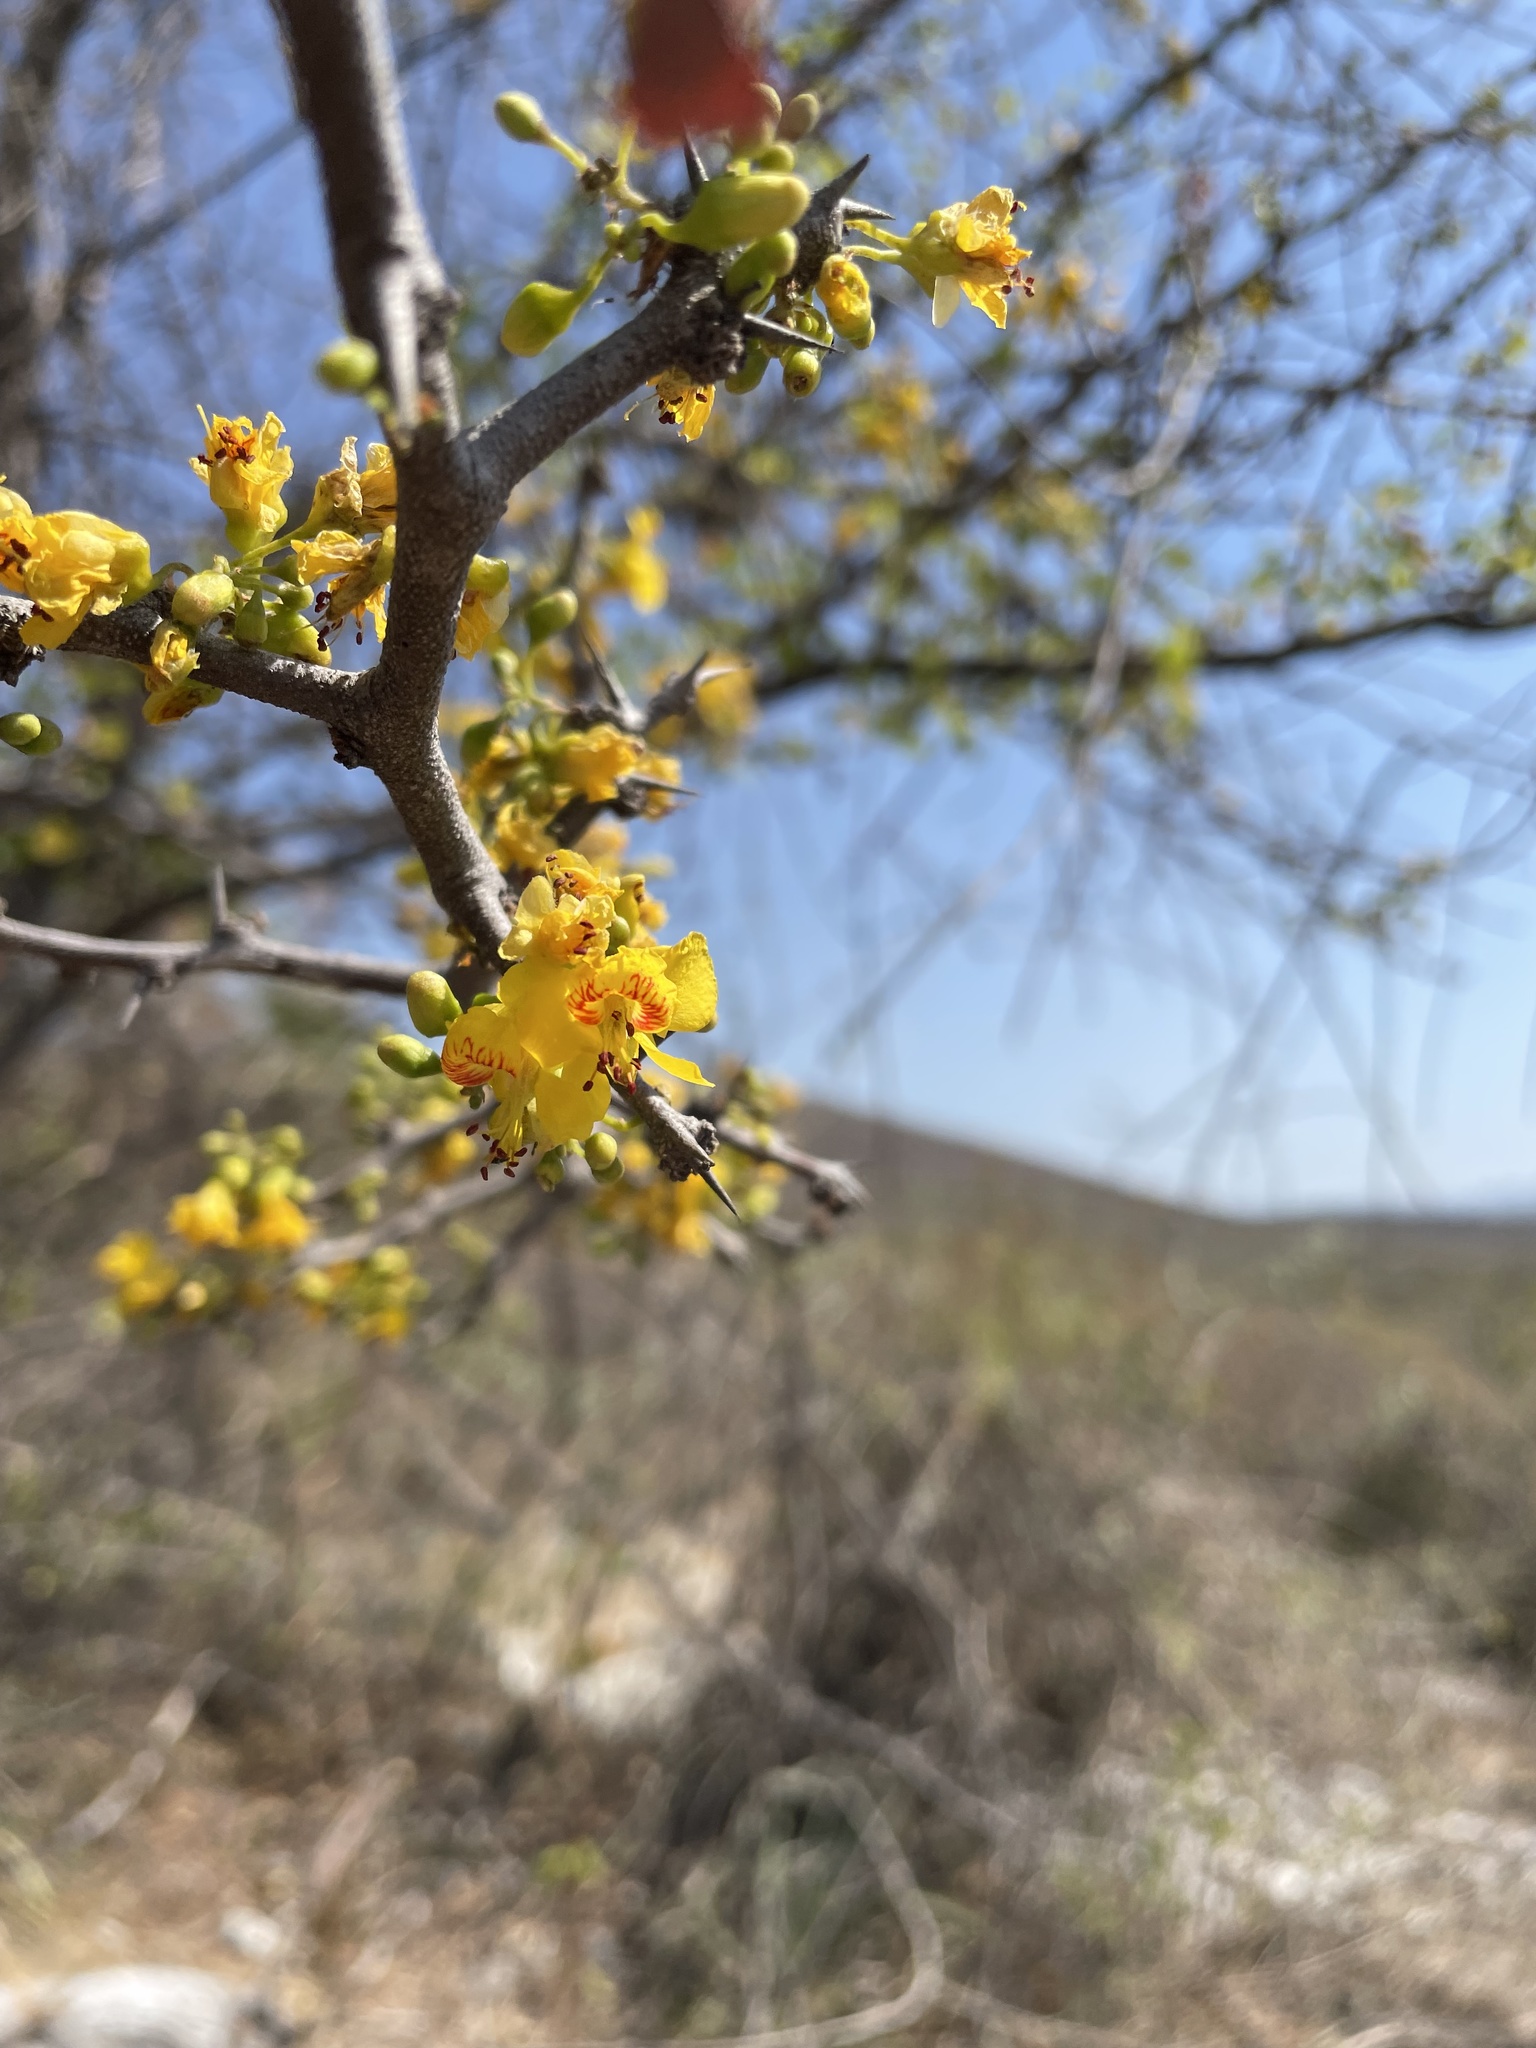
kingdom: Plantae
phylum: Tracheophyta
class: Magnoliopsida
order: Fabales
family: Fabaceae
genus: Haematoxylum
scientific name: Haematoxylum brasiletto
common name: Peachwood
